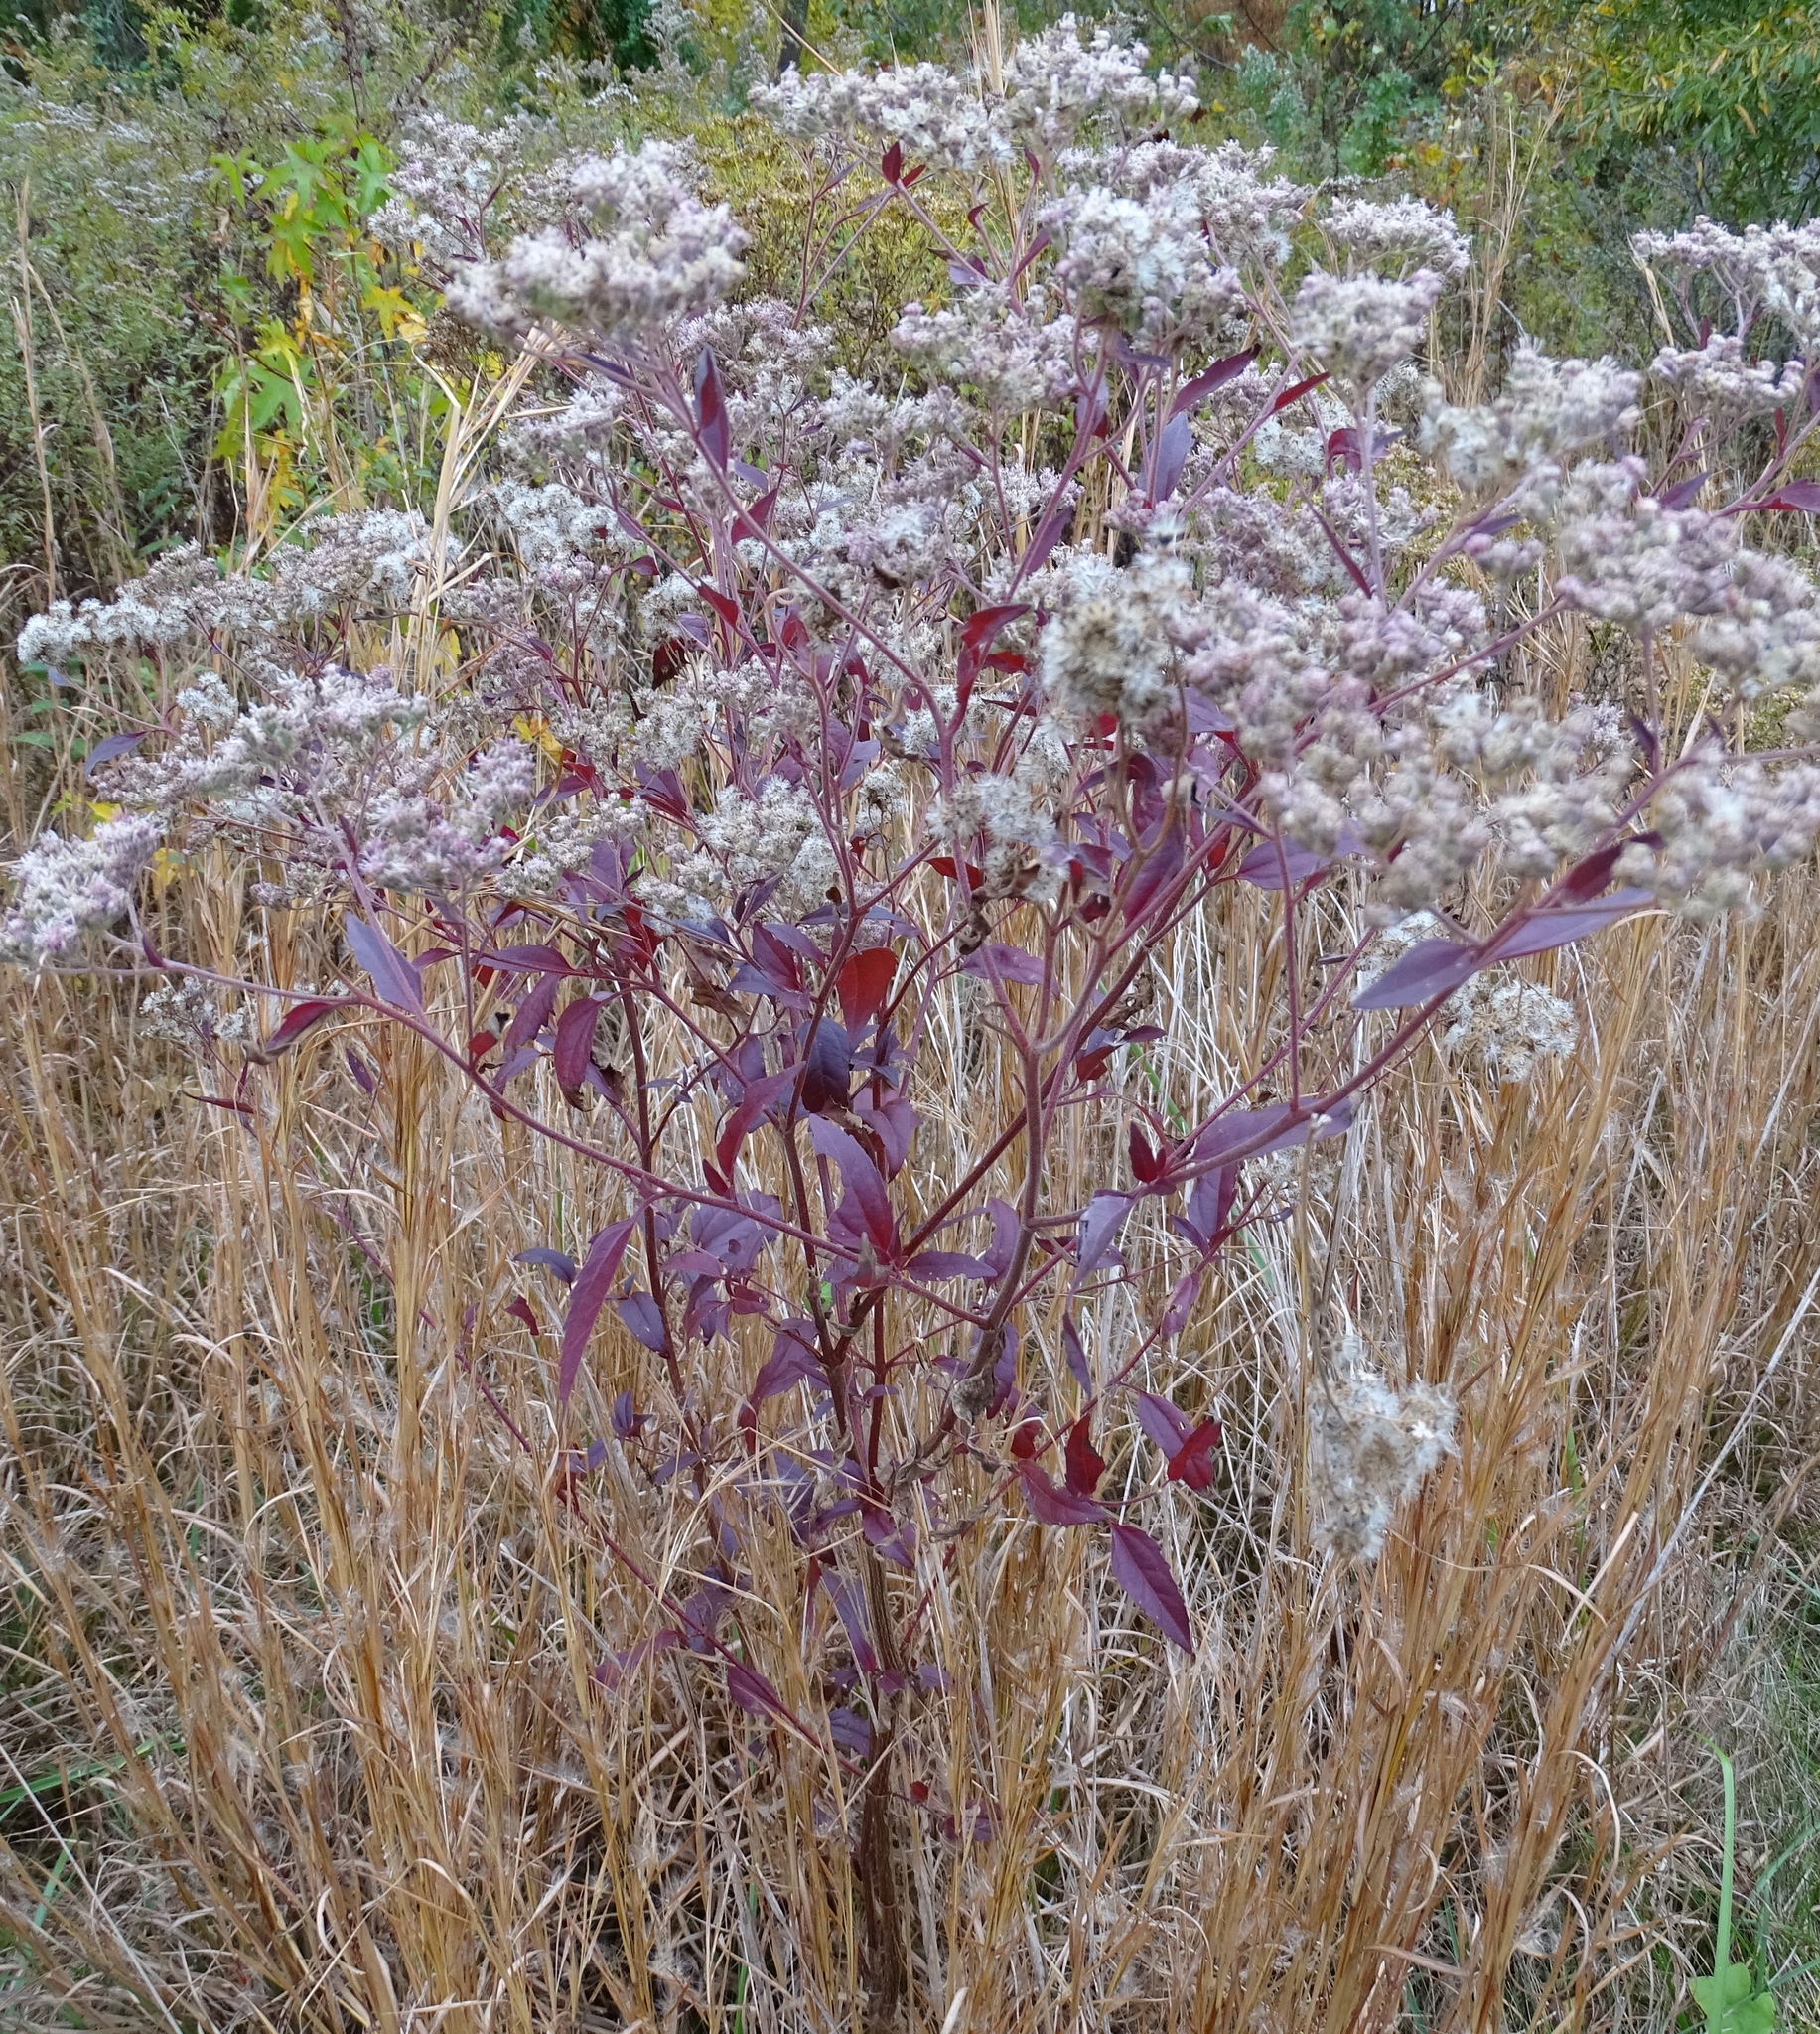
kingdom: Plantae
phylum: Tracheophyta
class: Magnoliopsida
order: Asterales
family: Asteraceae
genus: Eupatorium
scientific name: Eupatorium serotinum
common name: Late boneset
